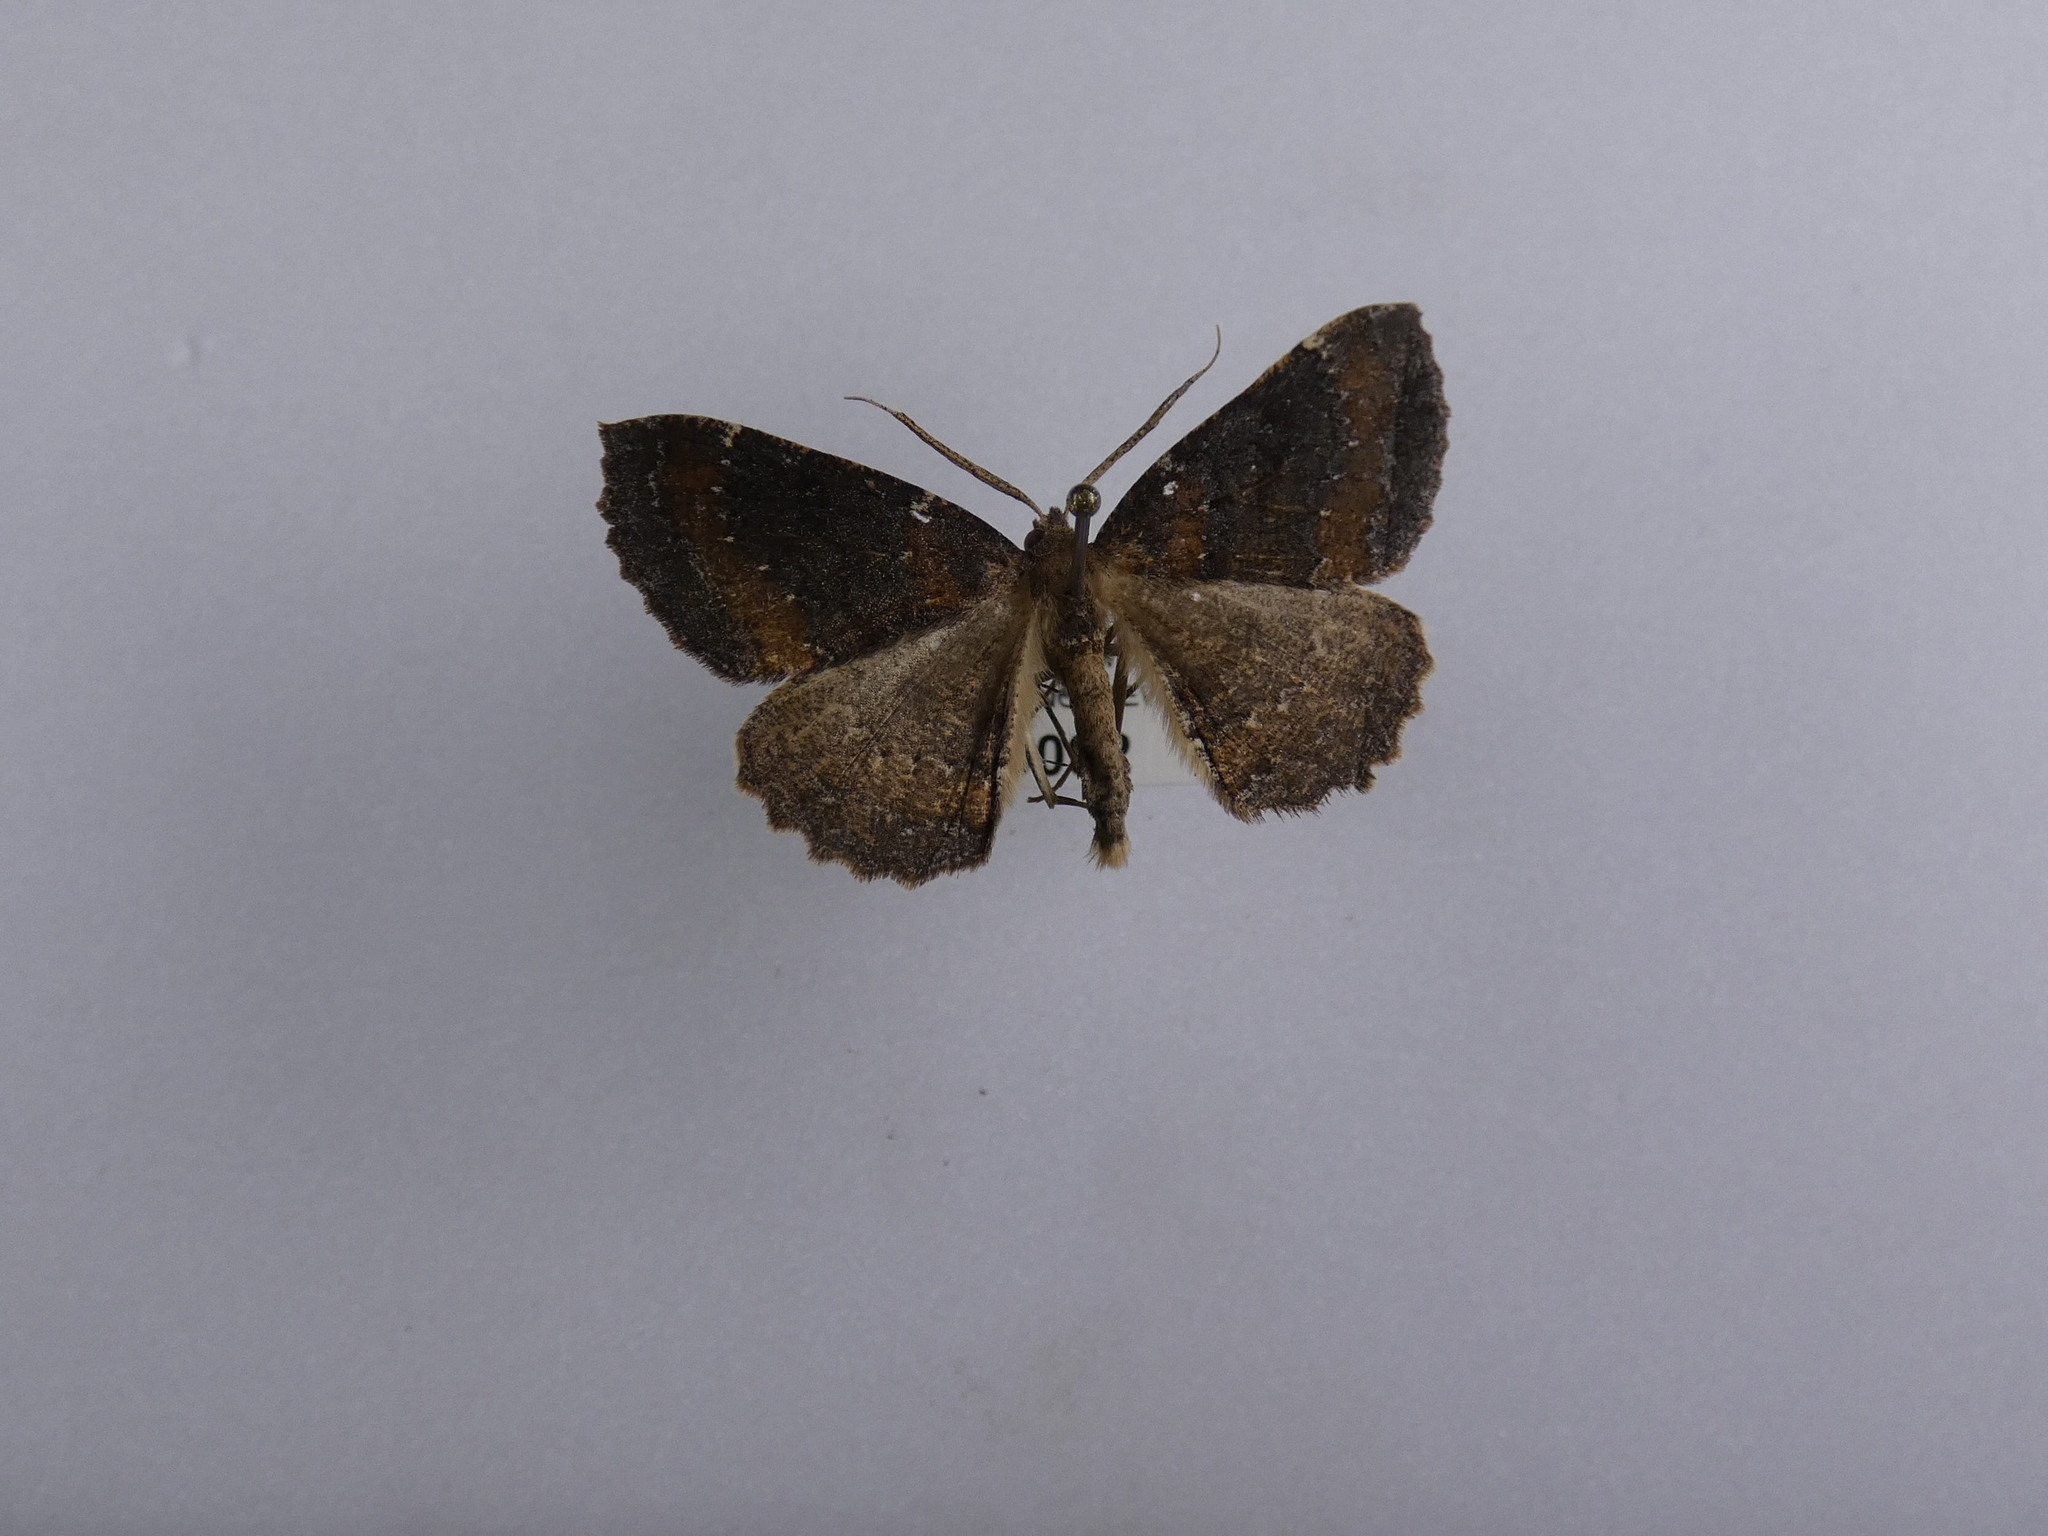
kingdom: Animalia
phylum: Arthropoda
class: Insecta
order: Lepidoptera
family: Geometridae
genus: Cleora
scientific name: Cleora scriptaria
